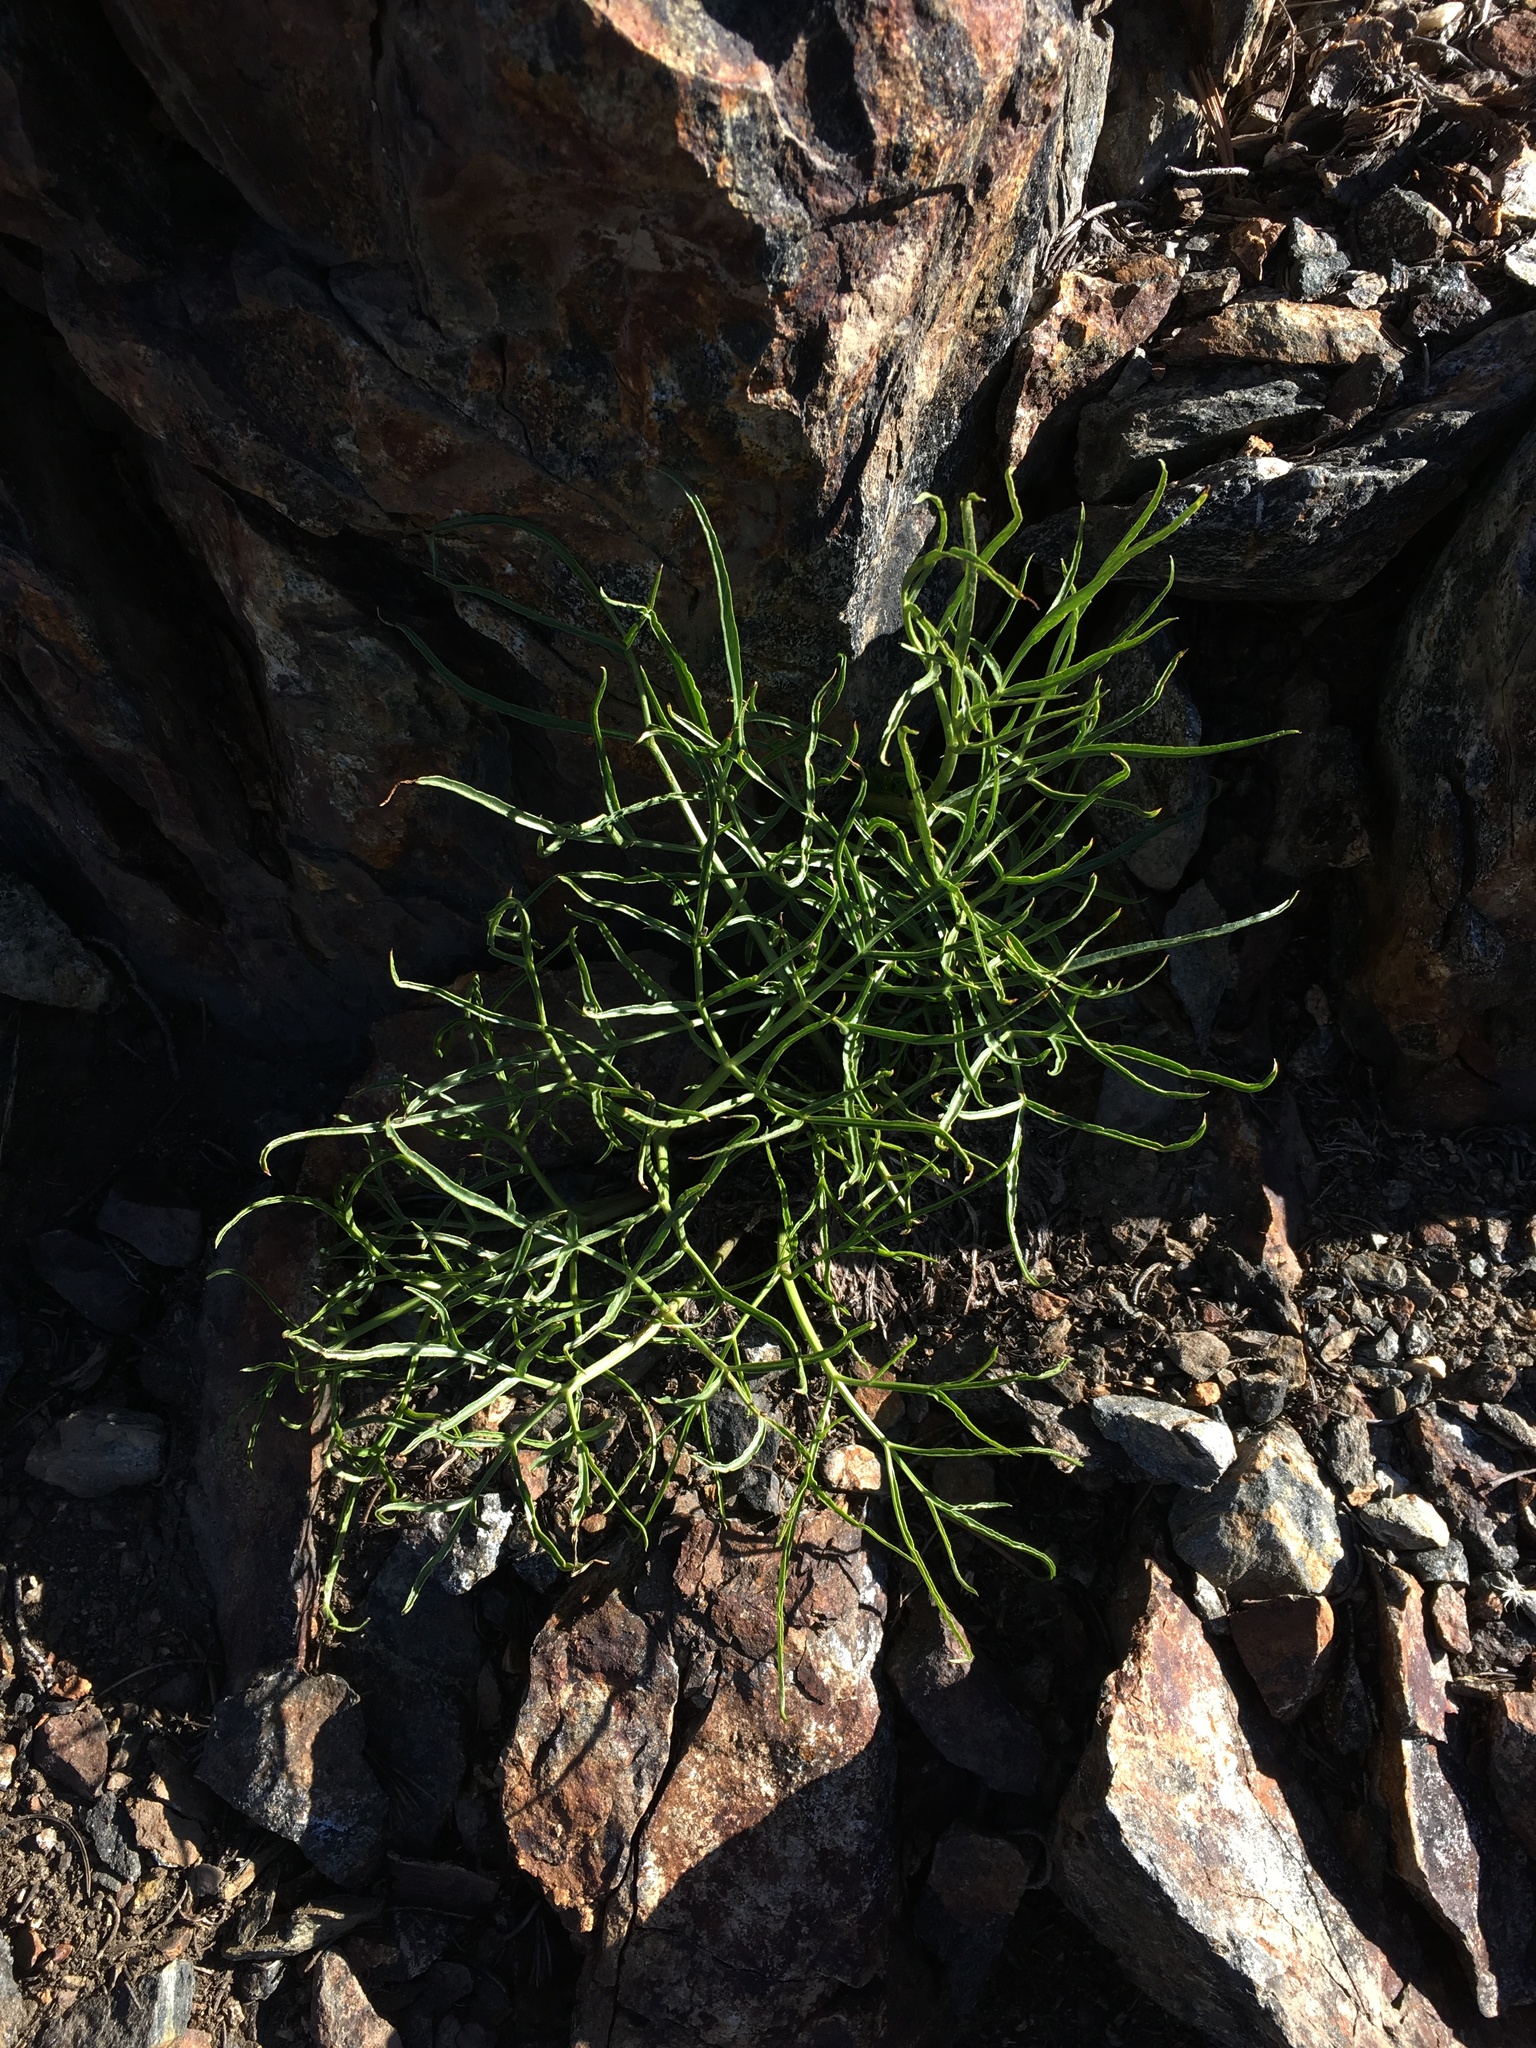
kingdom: Plantae
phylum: Tracheophyta
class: Magnoliopsida
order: Apiales
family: Apiaceae
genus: Angelica
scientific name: Angelica lineariloba
